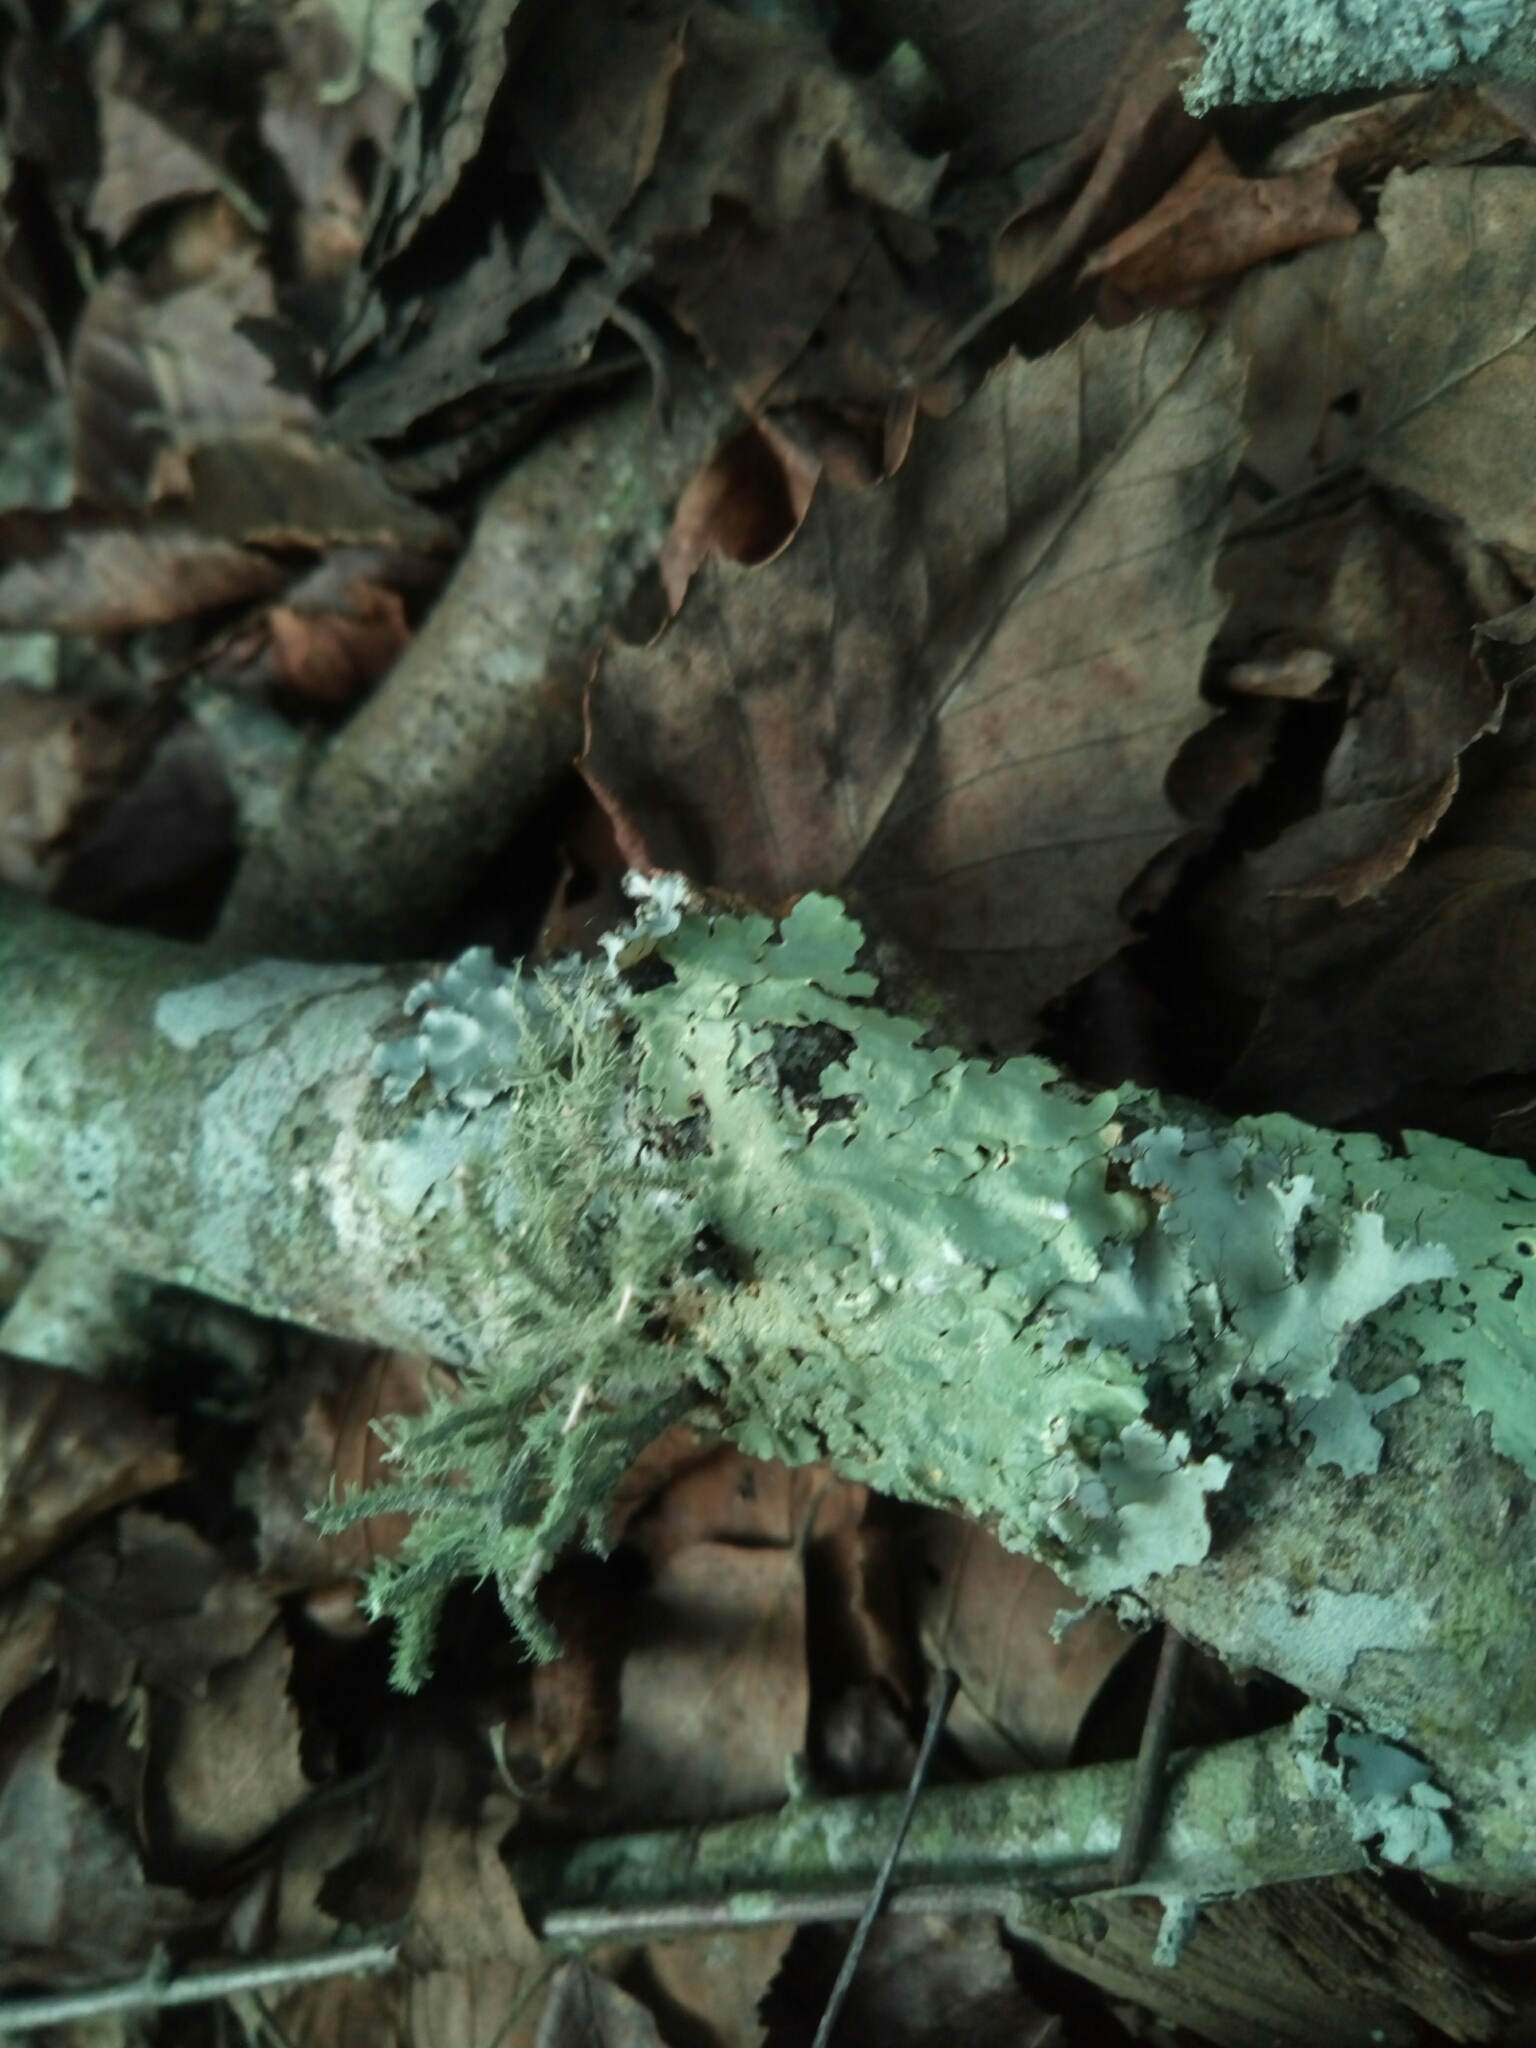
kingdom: Fungi
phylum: Ascomycota
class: Lecanoromycetes
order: Lecanorales
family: Parmeliaceae
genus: Usnea
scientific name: Usnea strigosa
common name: Bushy beard lichen
